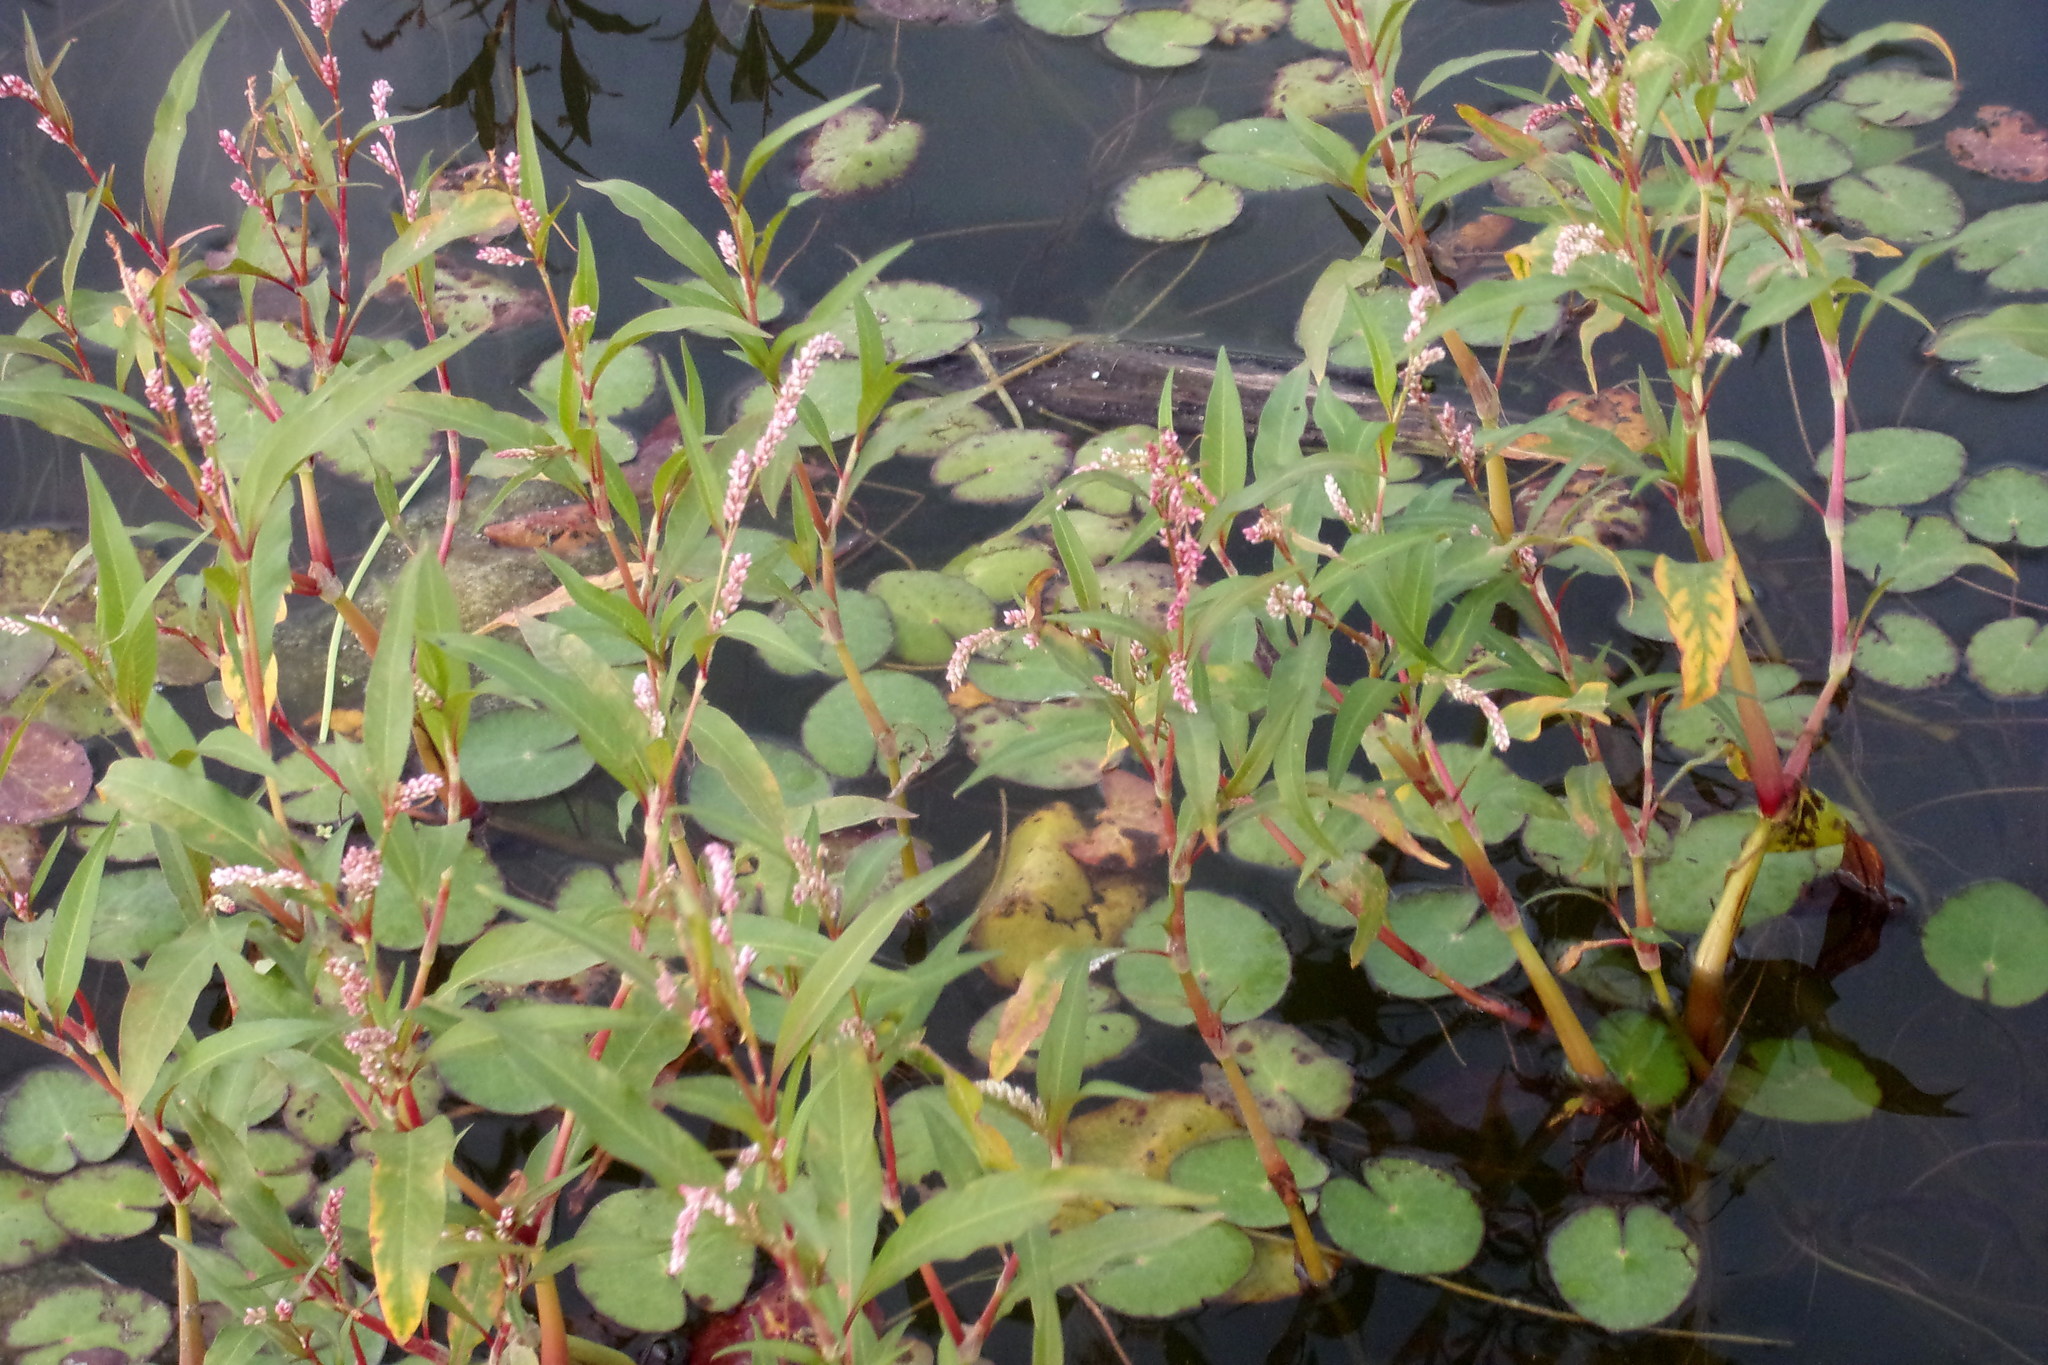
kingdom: Plantae
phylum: Tracheophyta
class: Magnoliopsida
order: Caryophyllales
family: Polygonaceae
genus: Persicaria
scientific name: Persicaria amphibia
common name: Amphibious bistort
